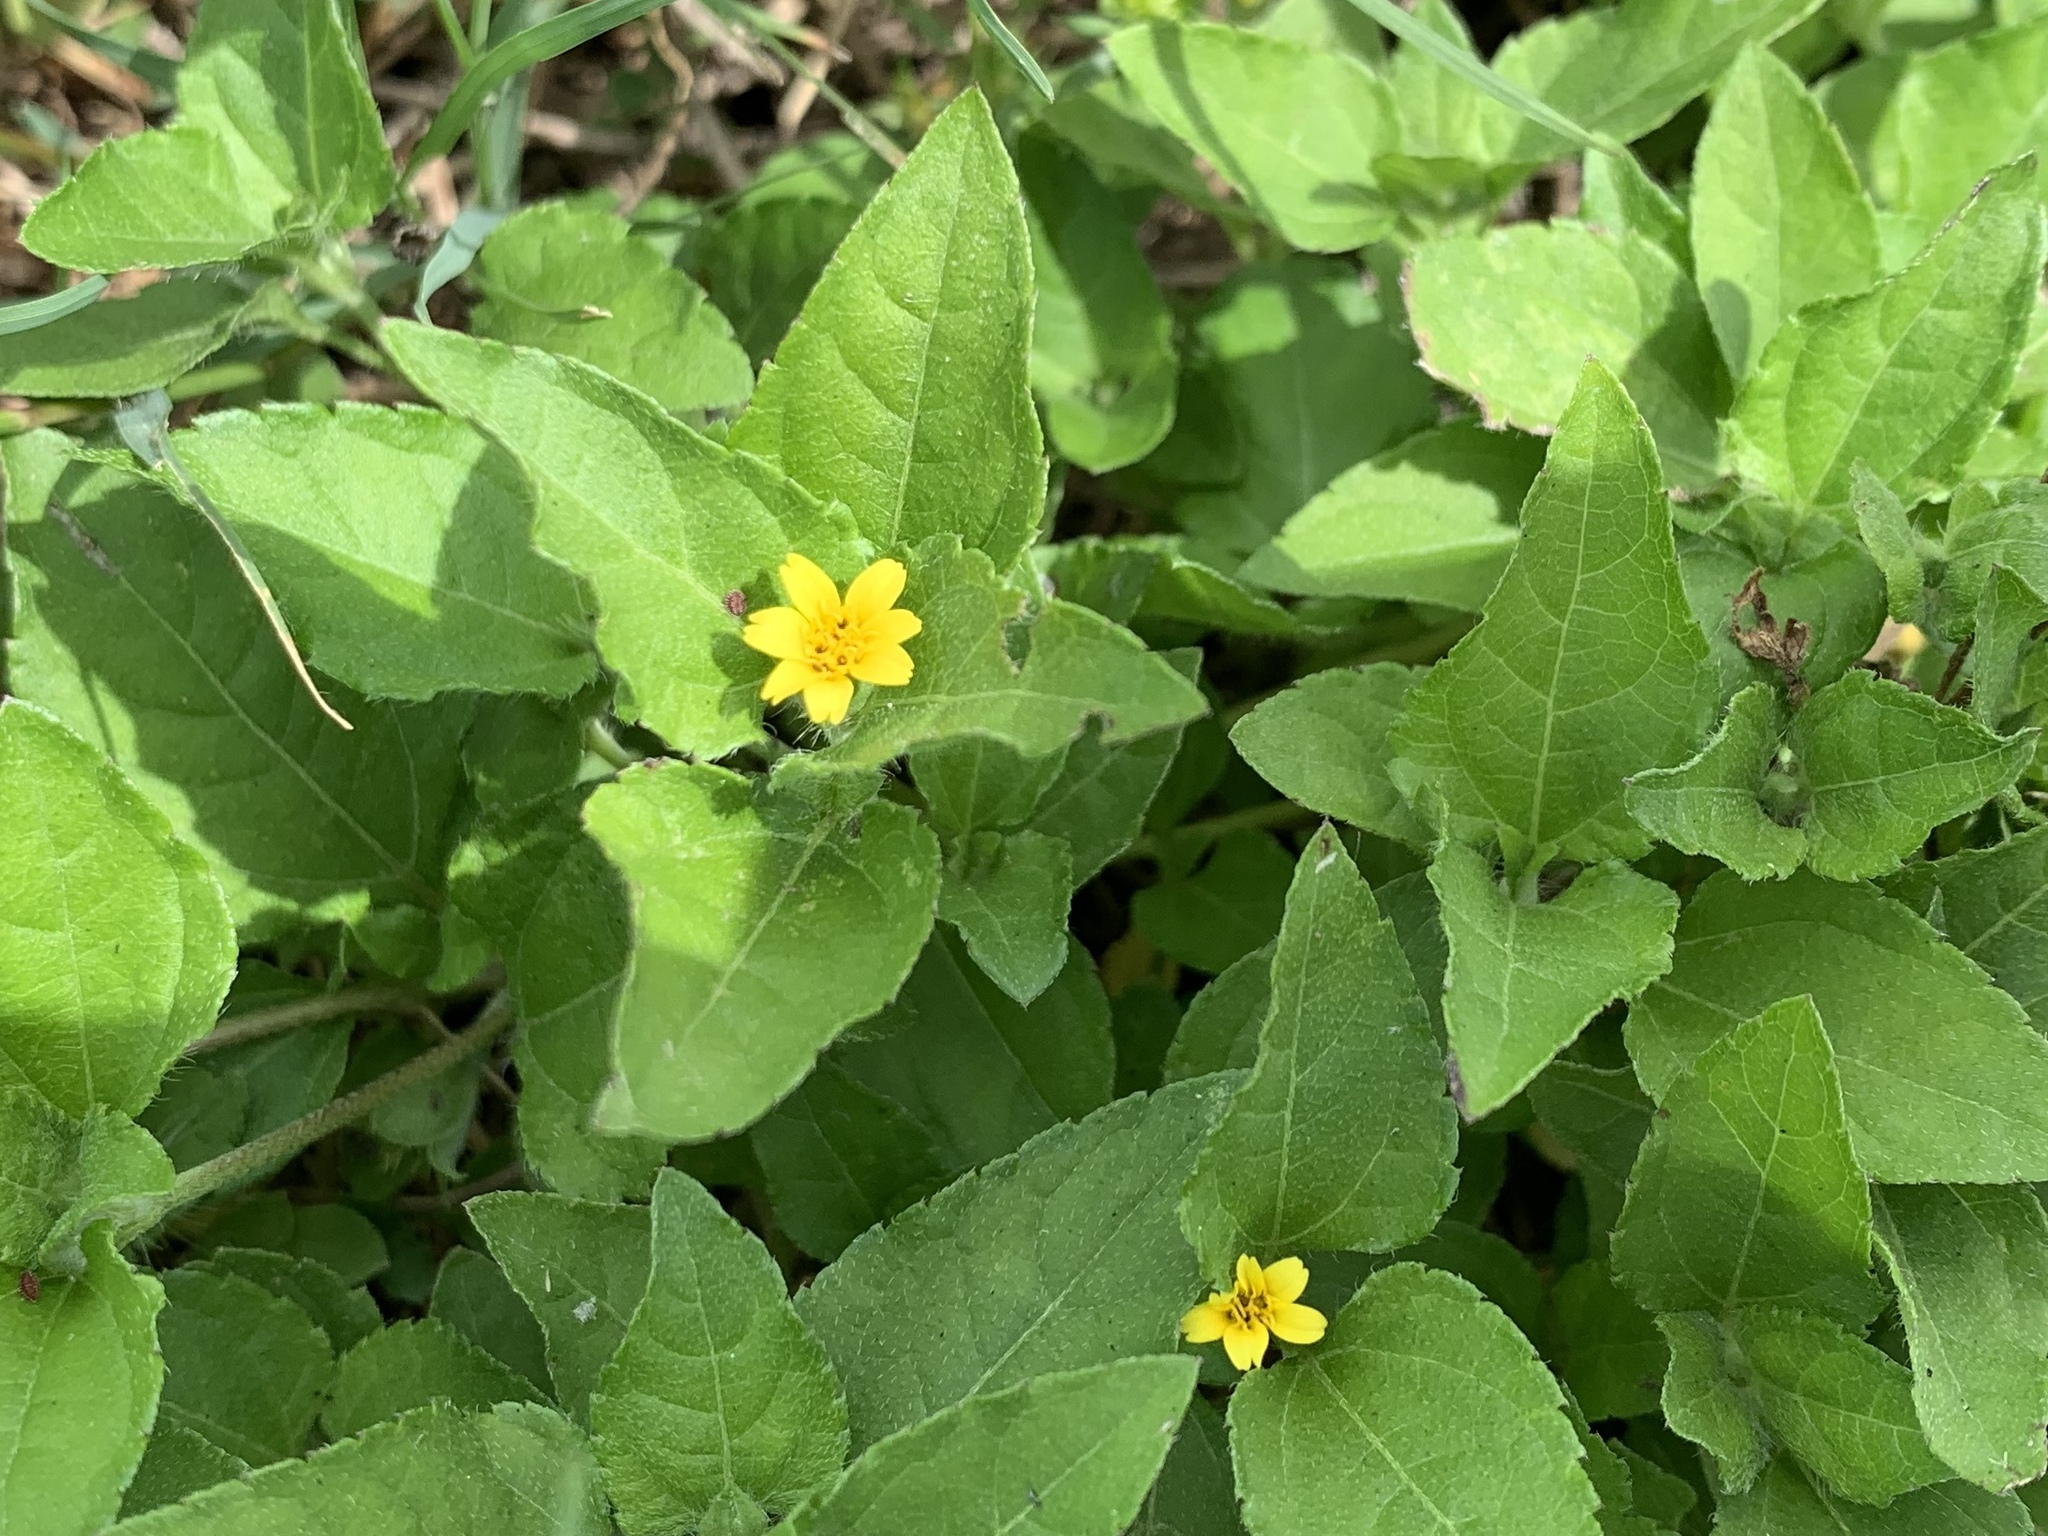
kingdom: Plantae
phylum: Tracheophyta
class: Magnoliopsida
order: Asterales
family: Asteraceae
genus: Calyptocarpus
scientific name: Calyptocarpus vialis
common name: Straggler daisy
